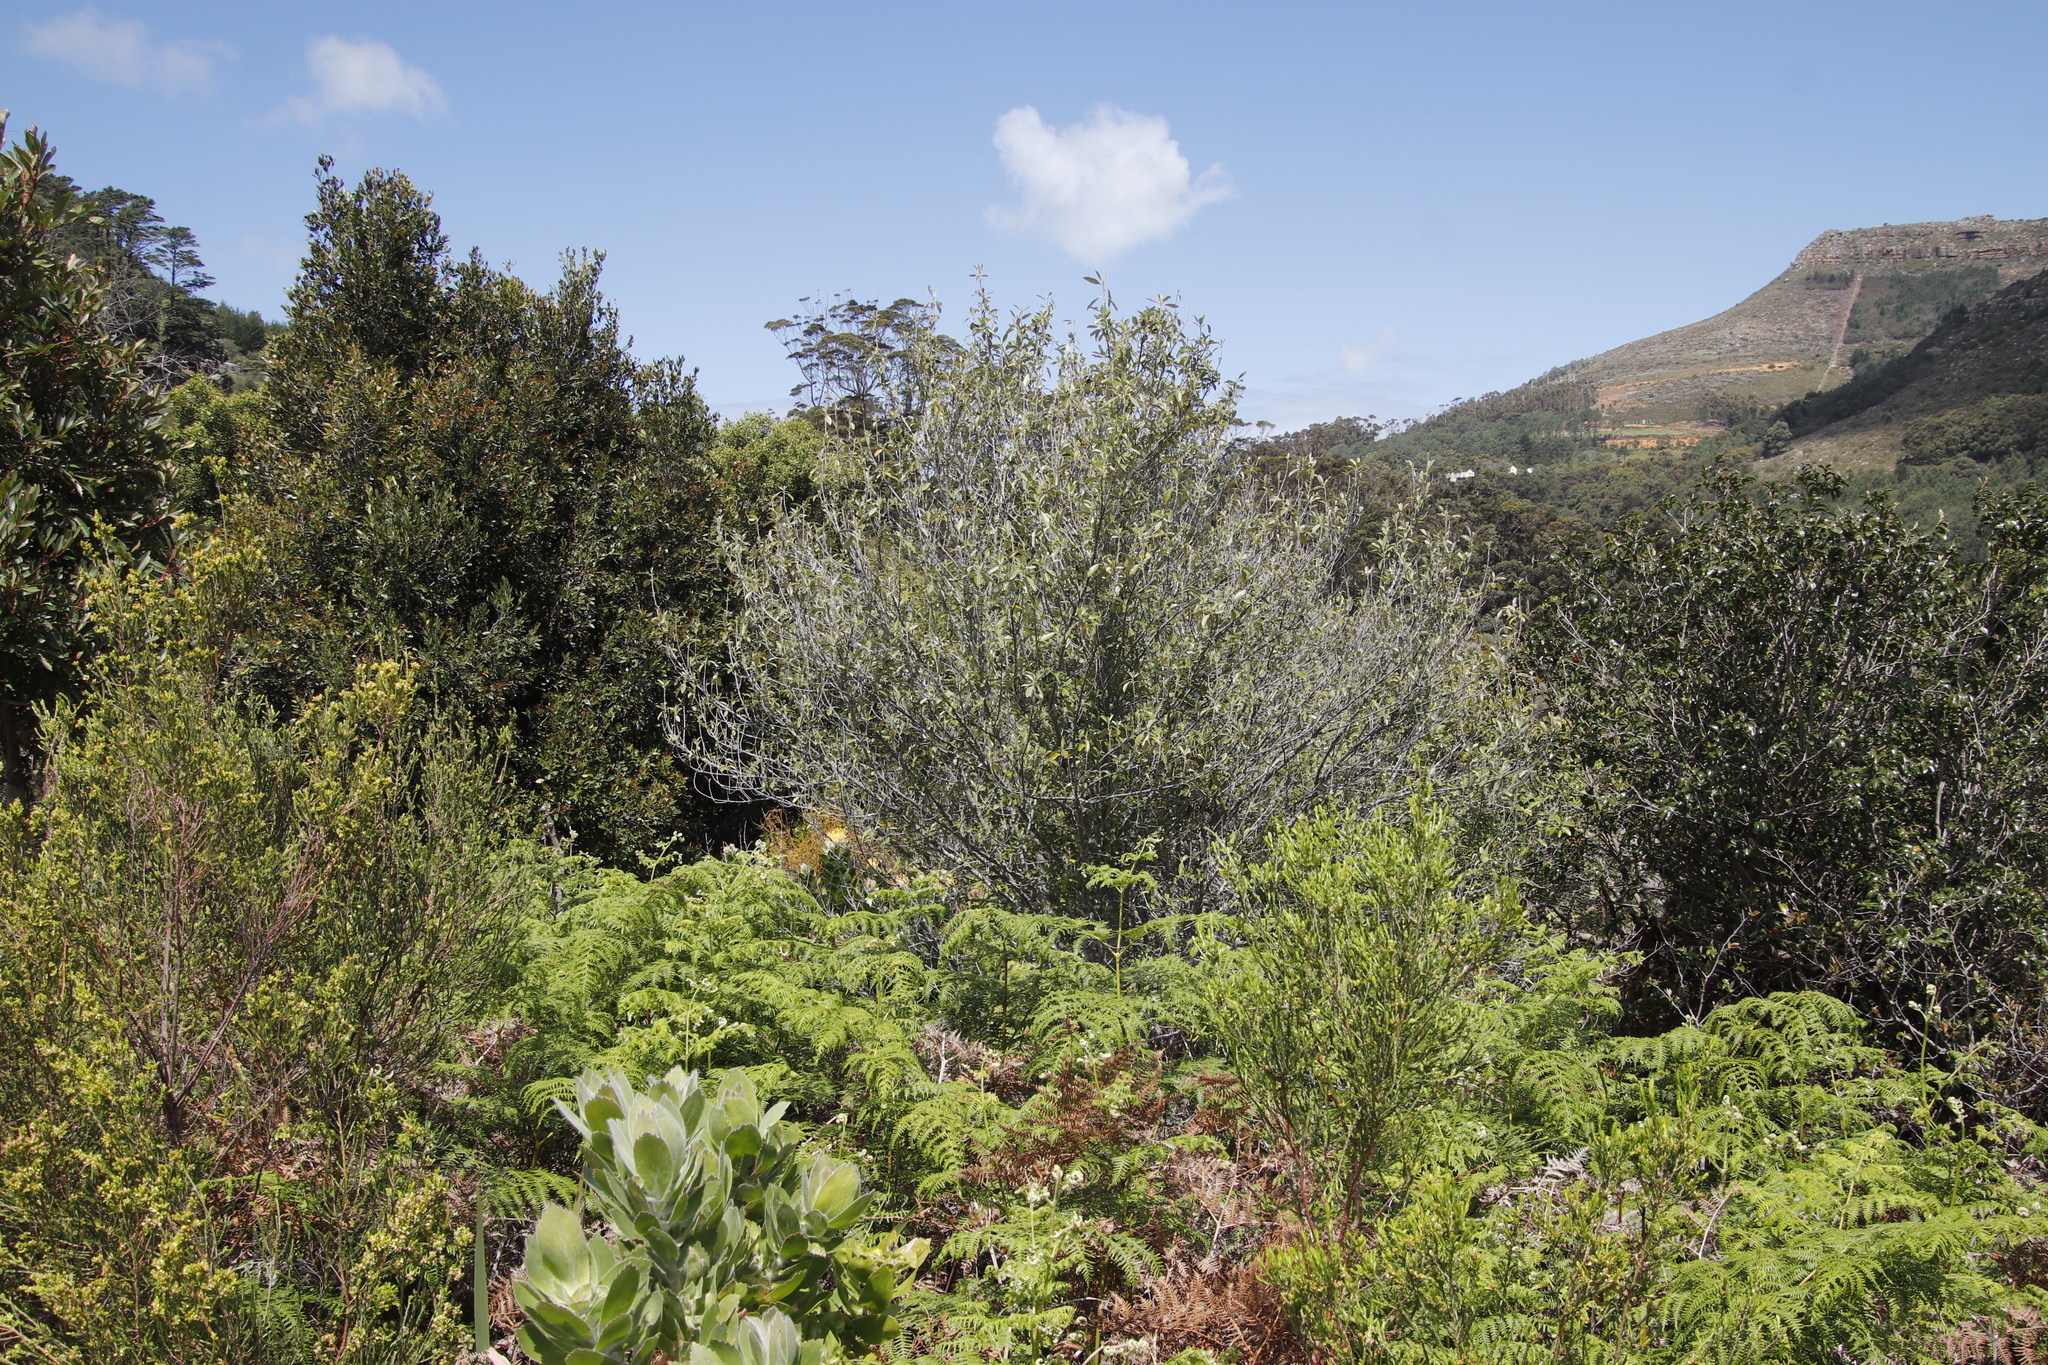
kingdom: Plantae
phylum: Tracheophyta
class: Magnoliopsida
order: Malpighiales
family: Achariaceae
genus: Kiggelaria
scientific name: Kiggelaria africana
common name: Wild peach
